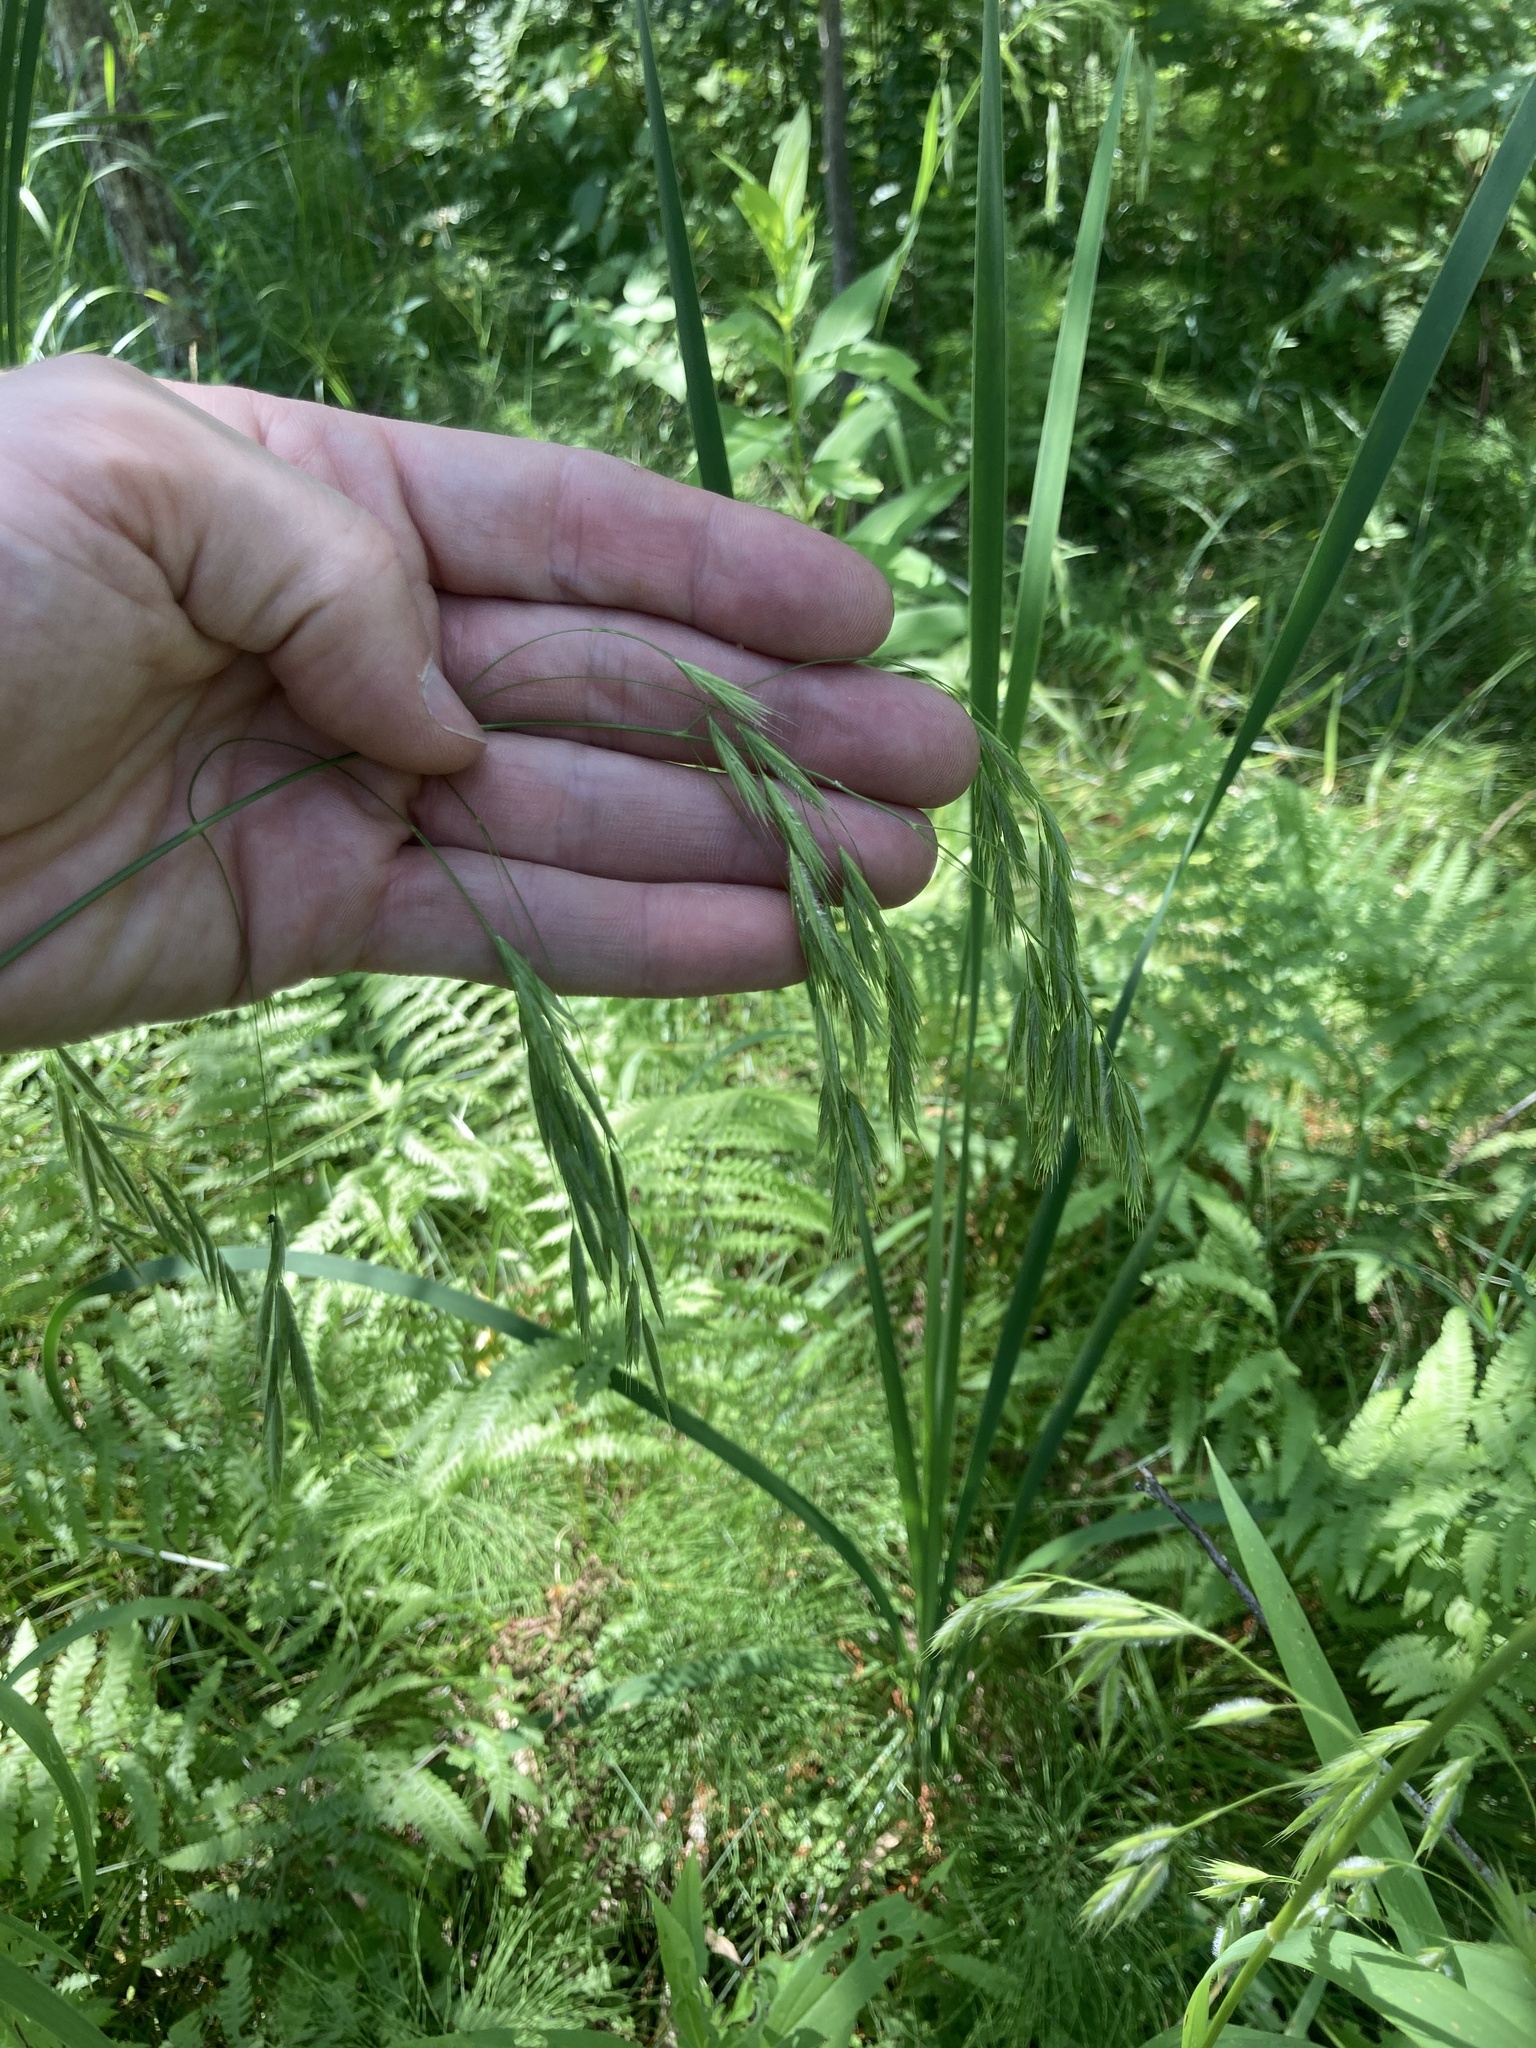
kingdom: Plantae
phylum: Tracheophyta
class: Liliopsida
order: Poales
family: Poaceae
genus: Bromus
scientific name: Bromus ciliatus
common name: Fringe brome
